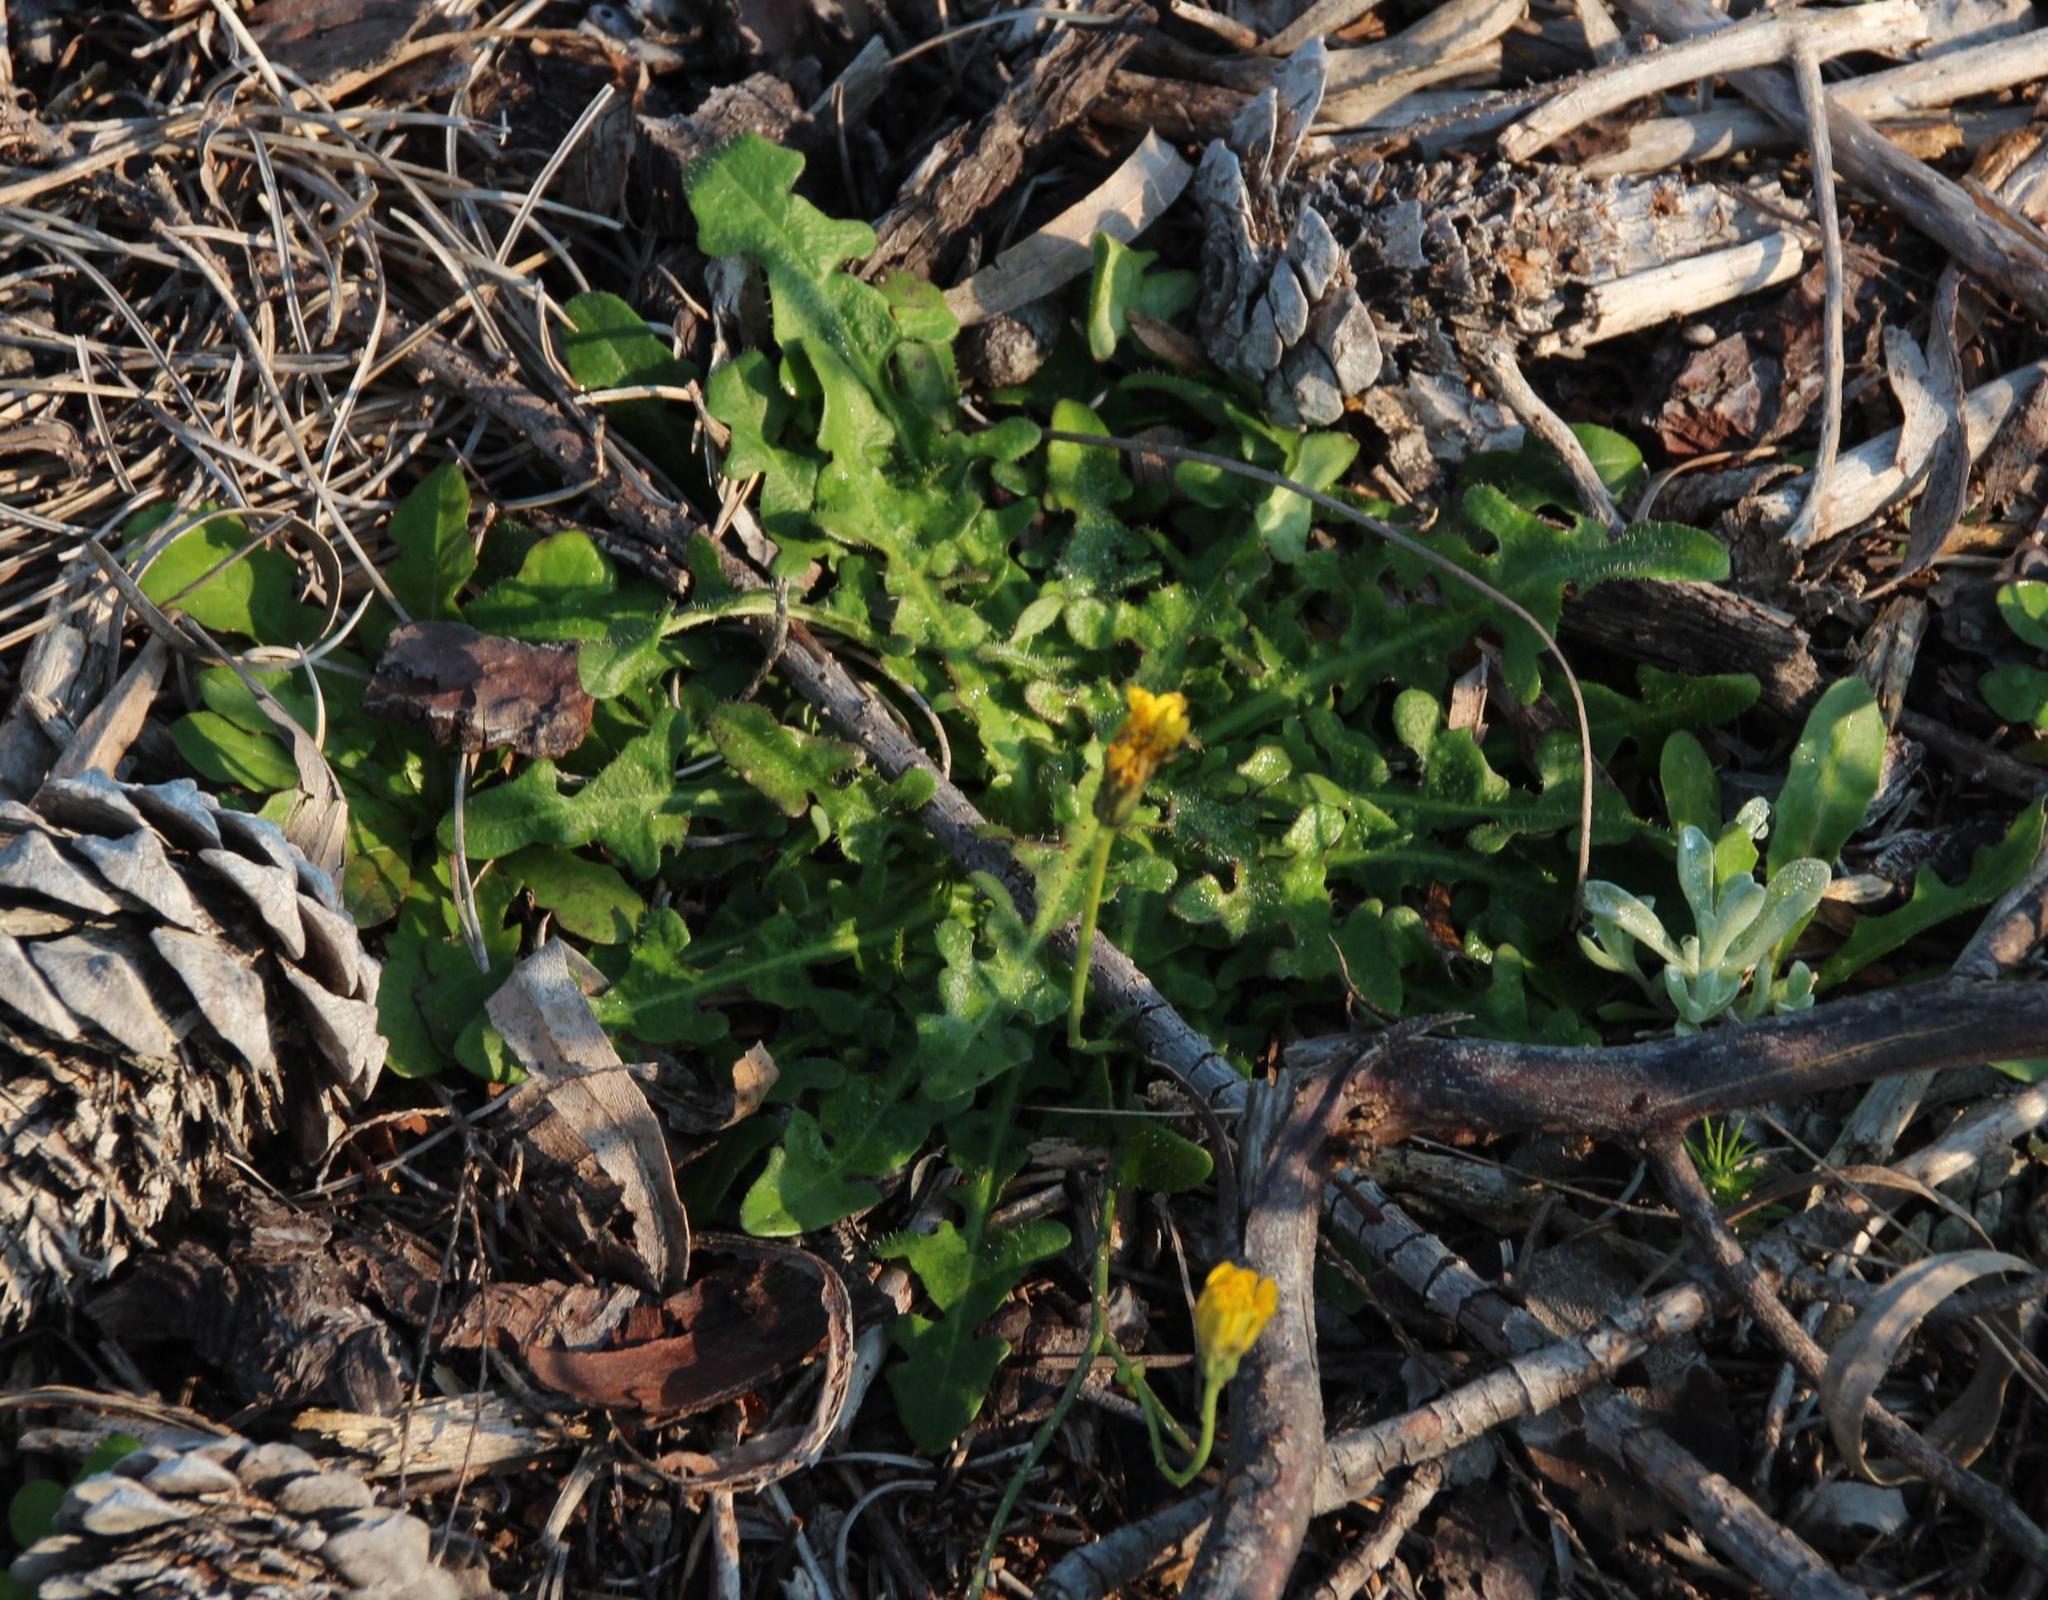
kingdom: Plantae
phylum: Tracheophyta
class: Magnoliopsida
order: Asterales
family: Asteraceae
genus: Hypochaeris
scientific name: Hypochaeris radicata
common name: Flatweed
